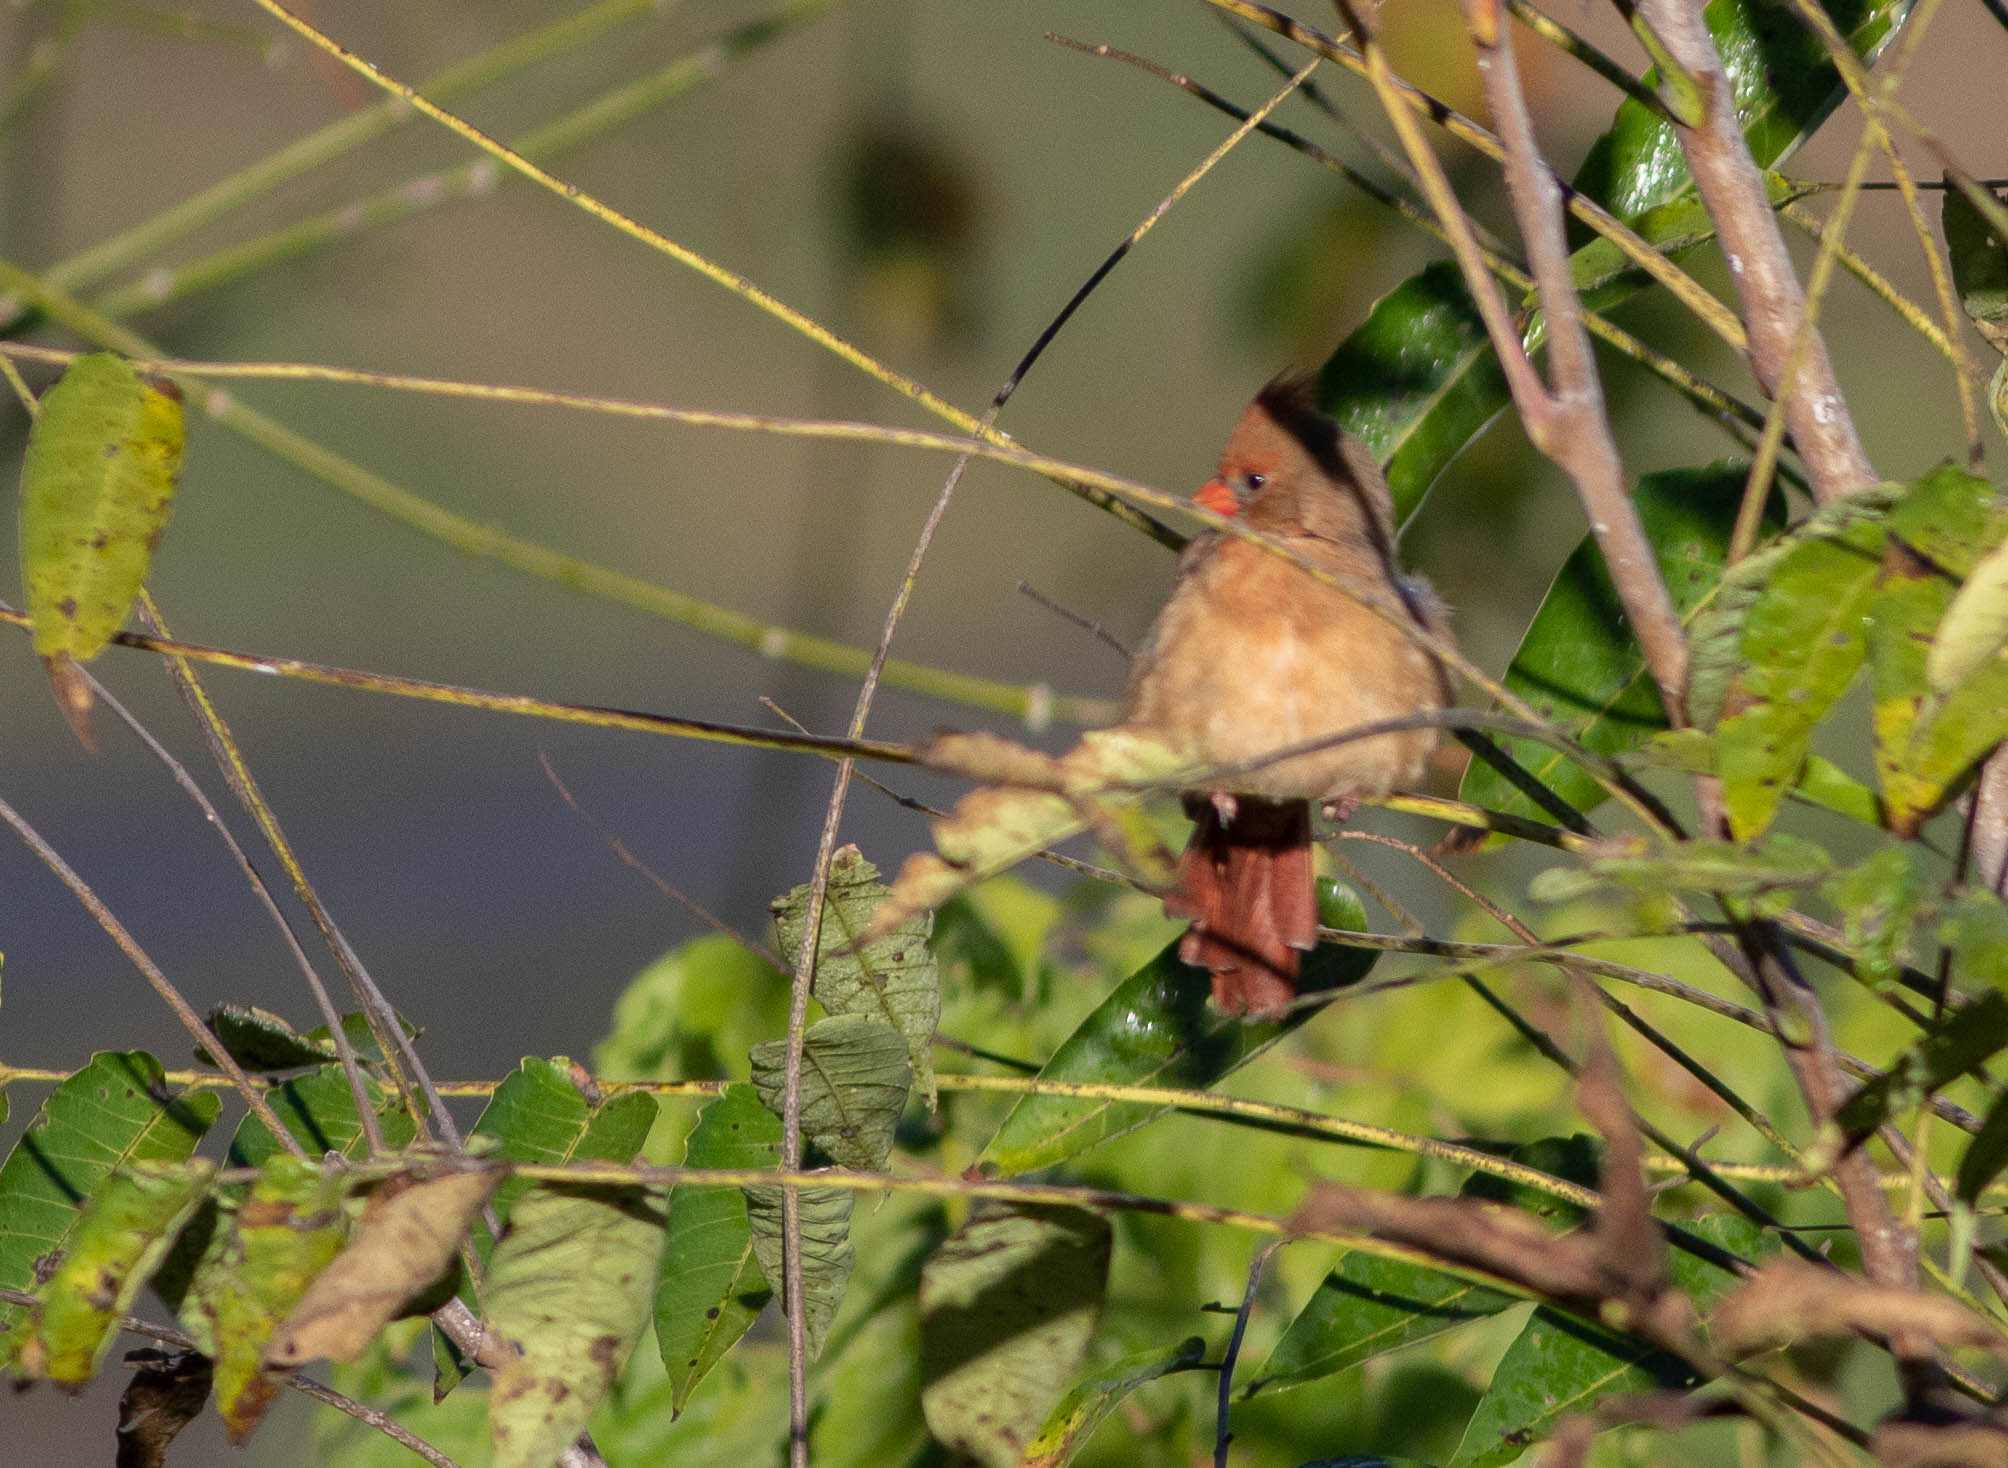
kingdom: Animalia
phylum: Chordata
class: Aves
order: Passeriformes
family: Cardinalidae
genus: Cardinalis
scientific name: Cardinalis cardinalis
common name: Northern cardinal
